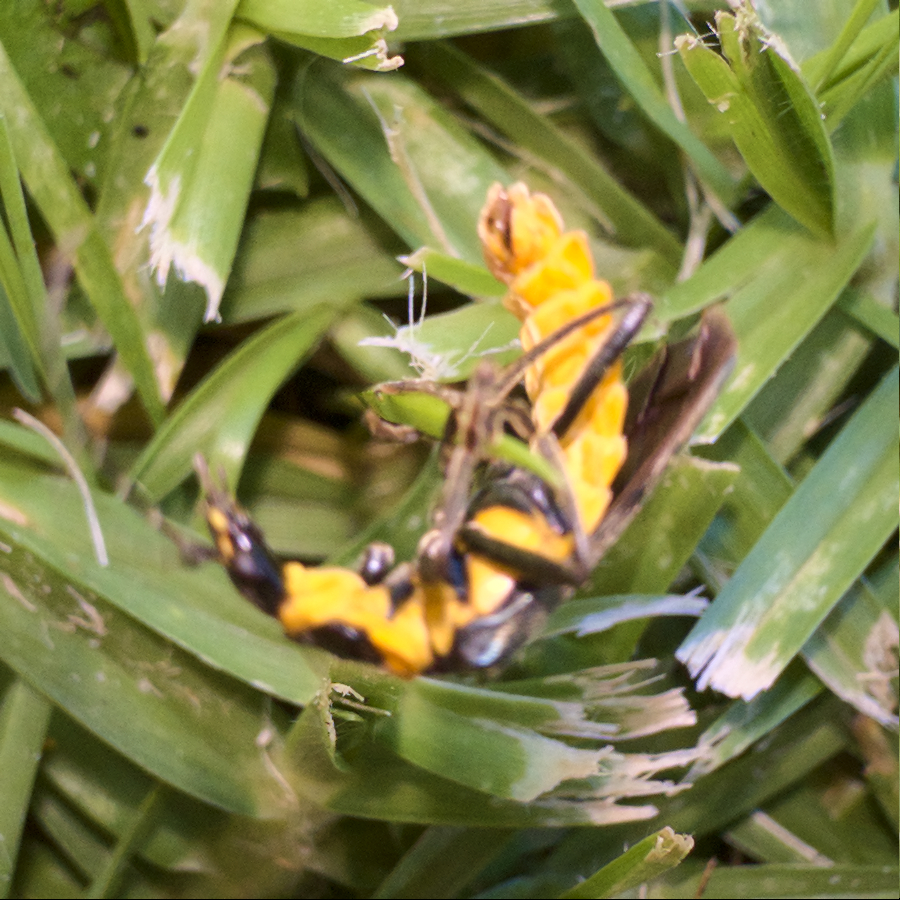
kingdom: Animalia
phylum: Arthropoda
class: Insecta
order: Coleoptera
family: Cantharidae
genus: Chauliognathus
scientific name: Chauliognathus
